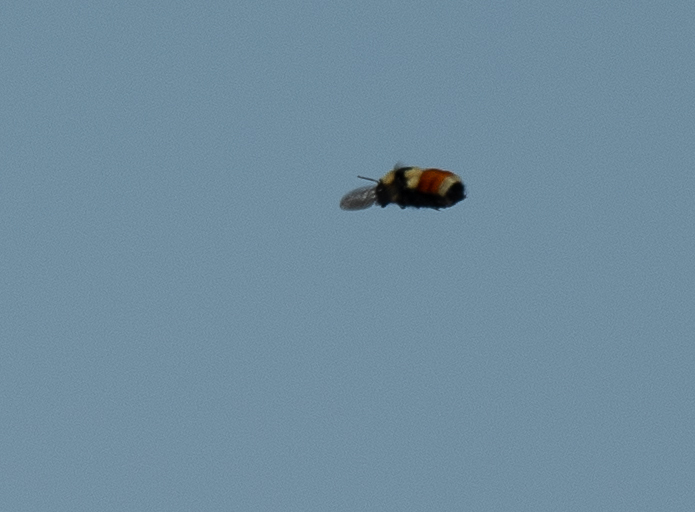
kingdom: Animalia
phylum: Arthropoda
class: Insecta
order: Hymenoptera
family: Apidae
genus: Bombus
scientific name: Bombus huntii
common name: Hunt bumble bee
